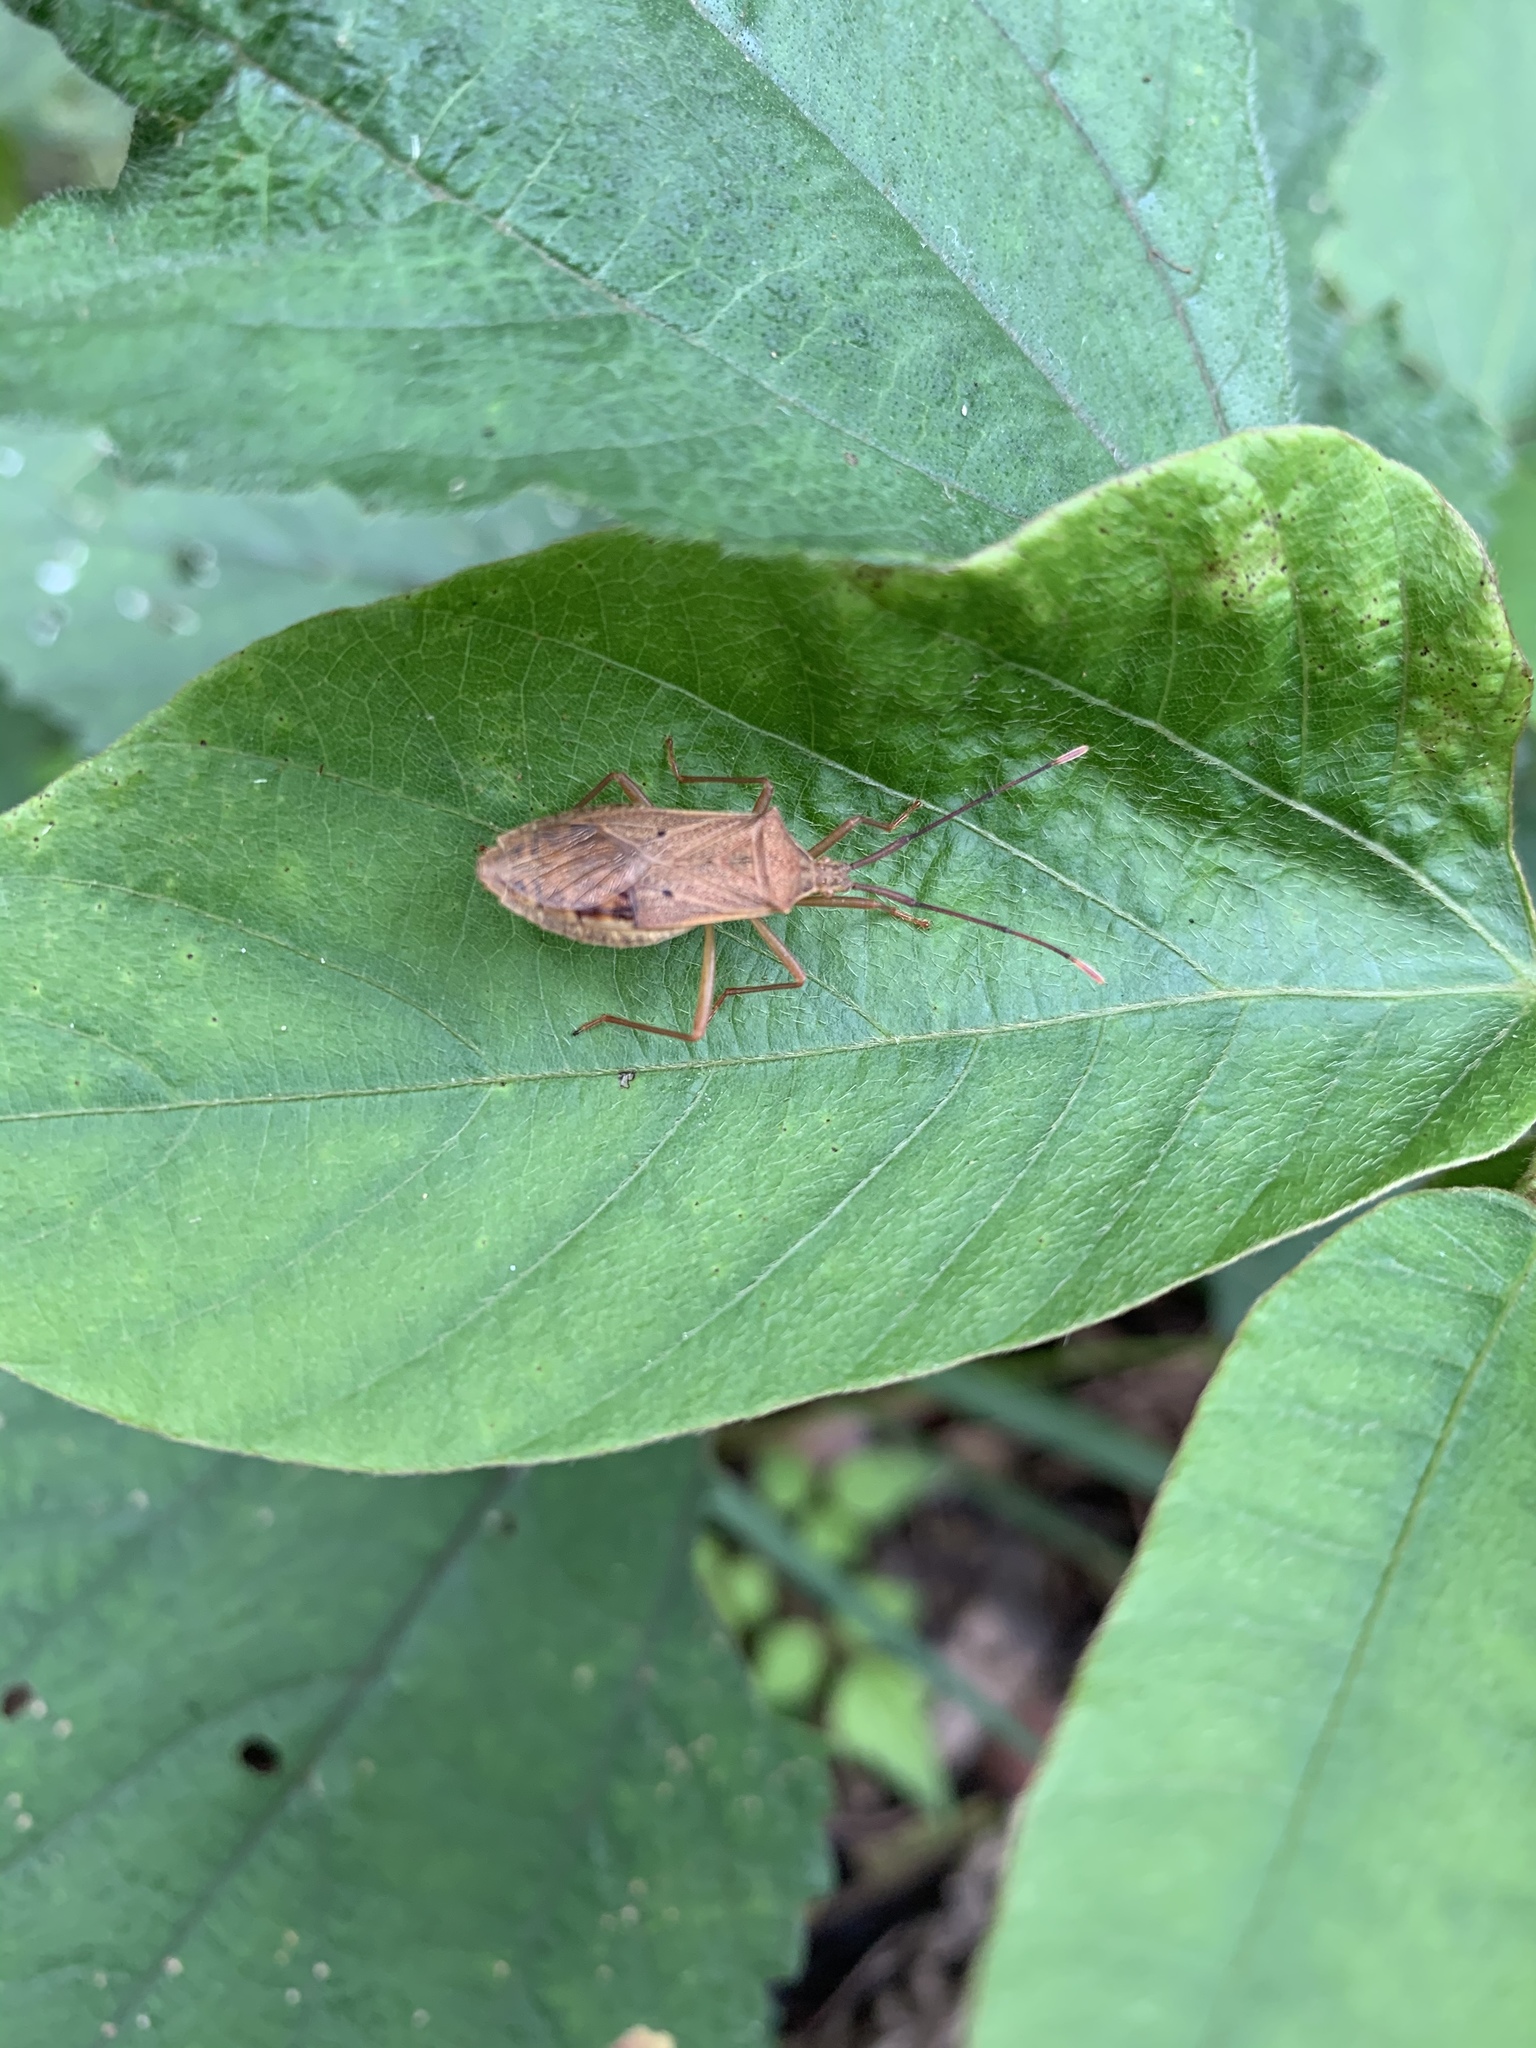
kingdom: Animalia
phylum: Arthropoda
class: Insecta
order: Hemiptera
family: Coreidae
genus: Homoeocerus
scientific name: Homoeocerus unipunctatus
